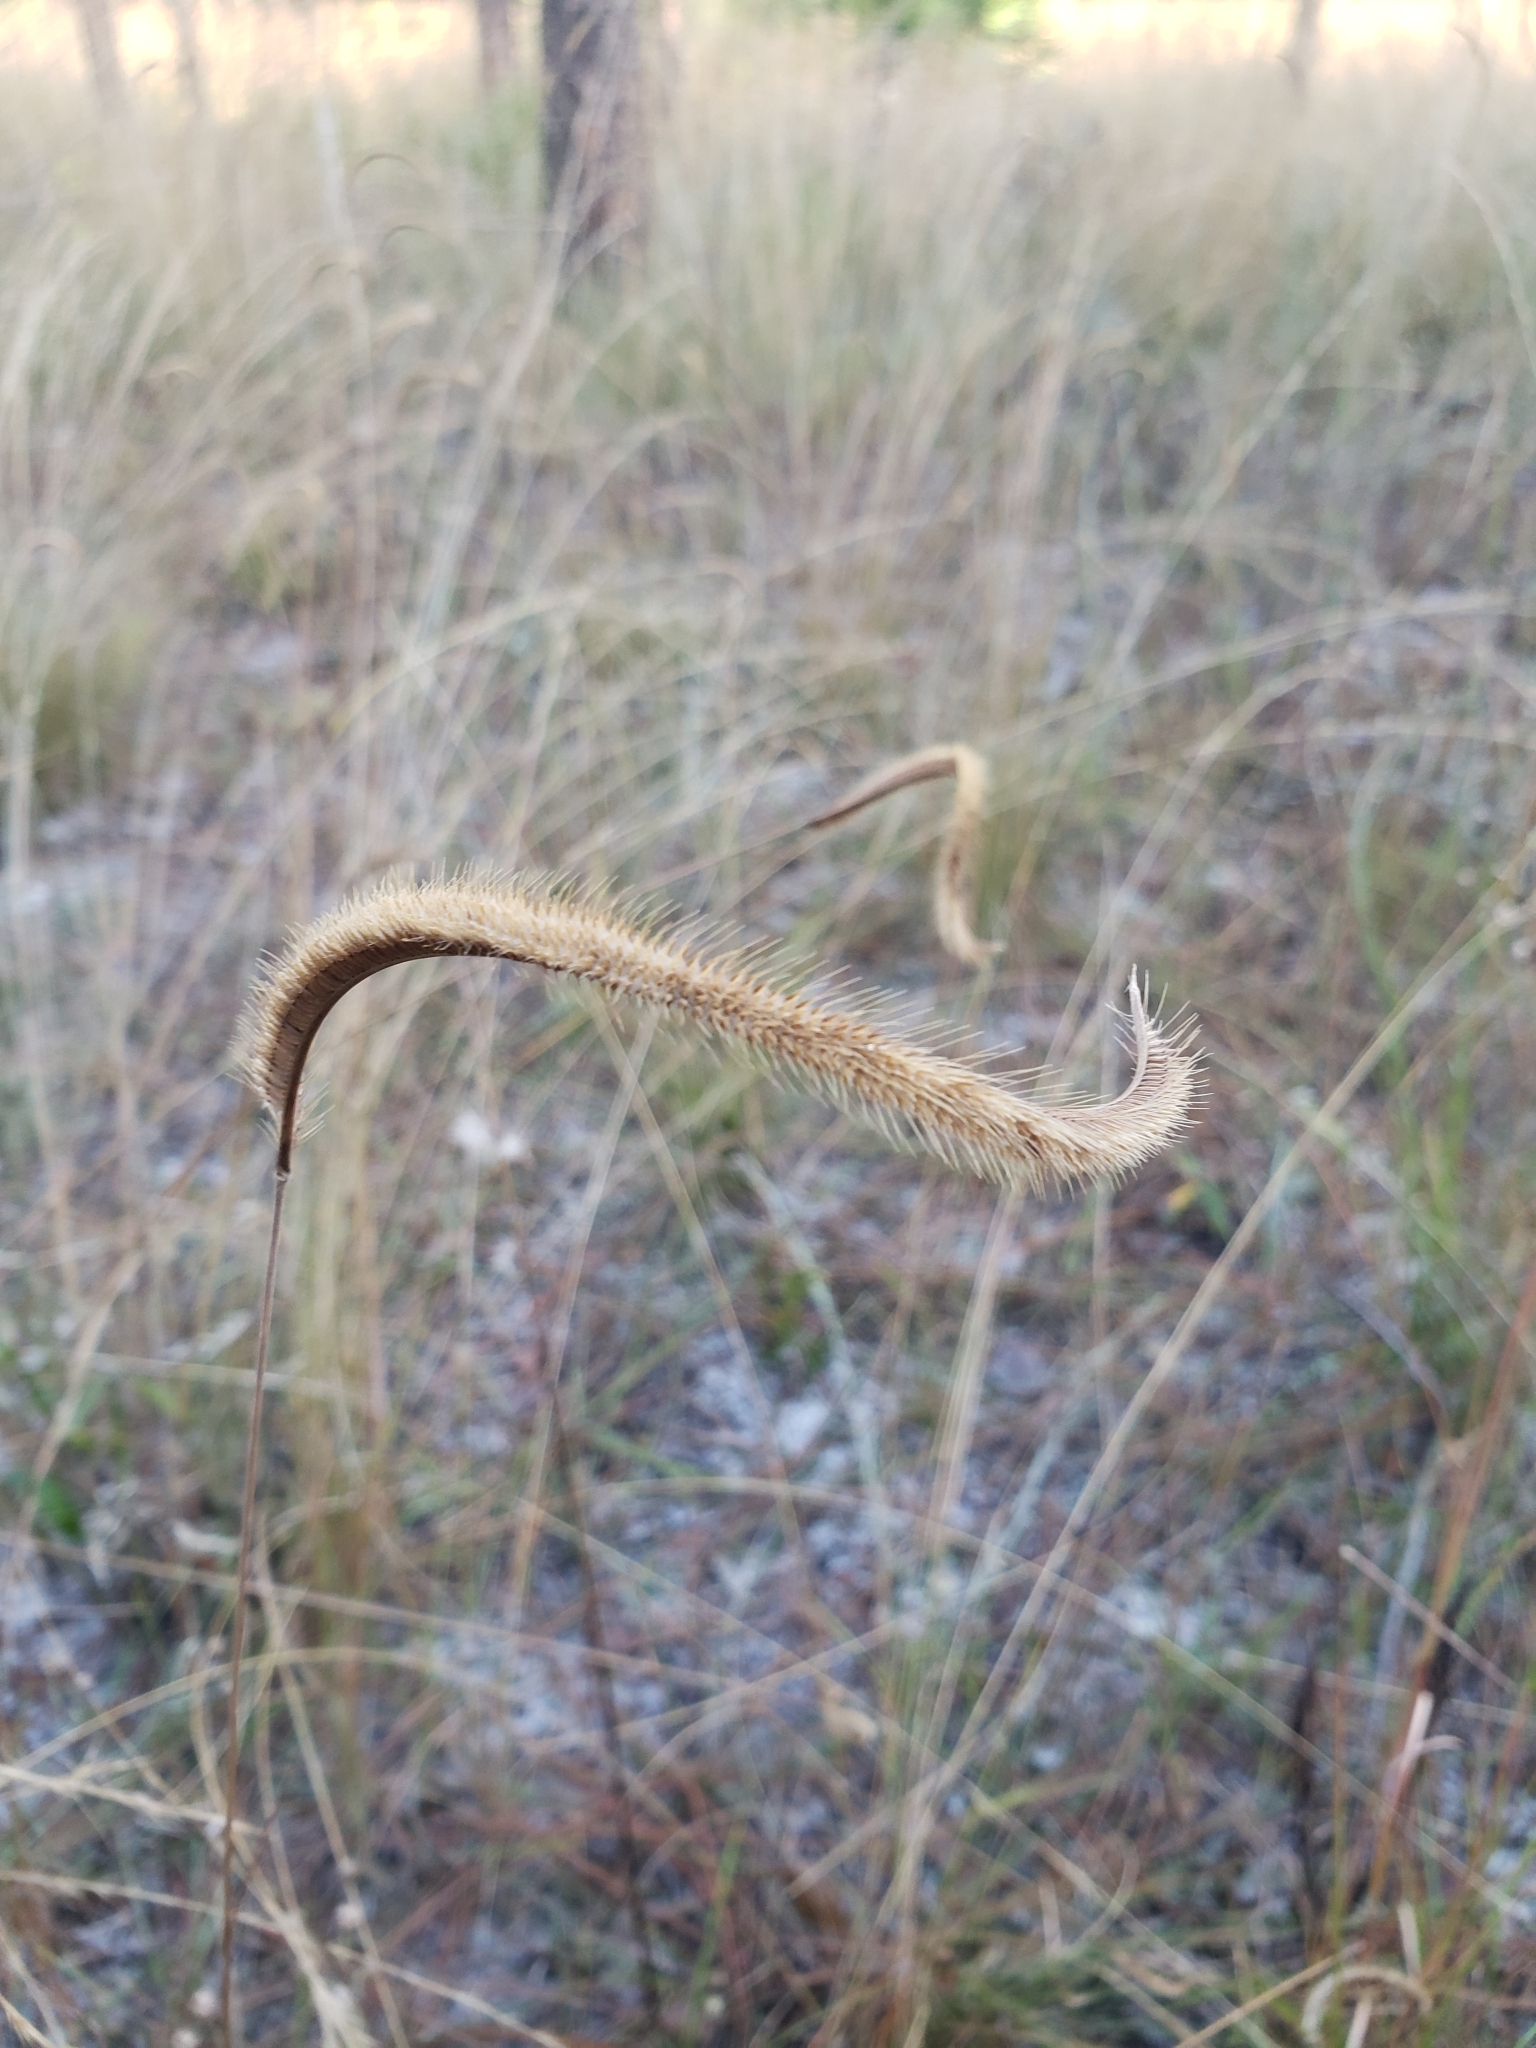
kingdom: Plantae
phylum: Tracheophyta
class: Liliopsida
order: Poales
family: Poaceae
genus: Ctenium
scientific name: Ctenium floridanum
